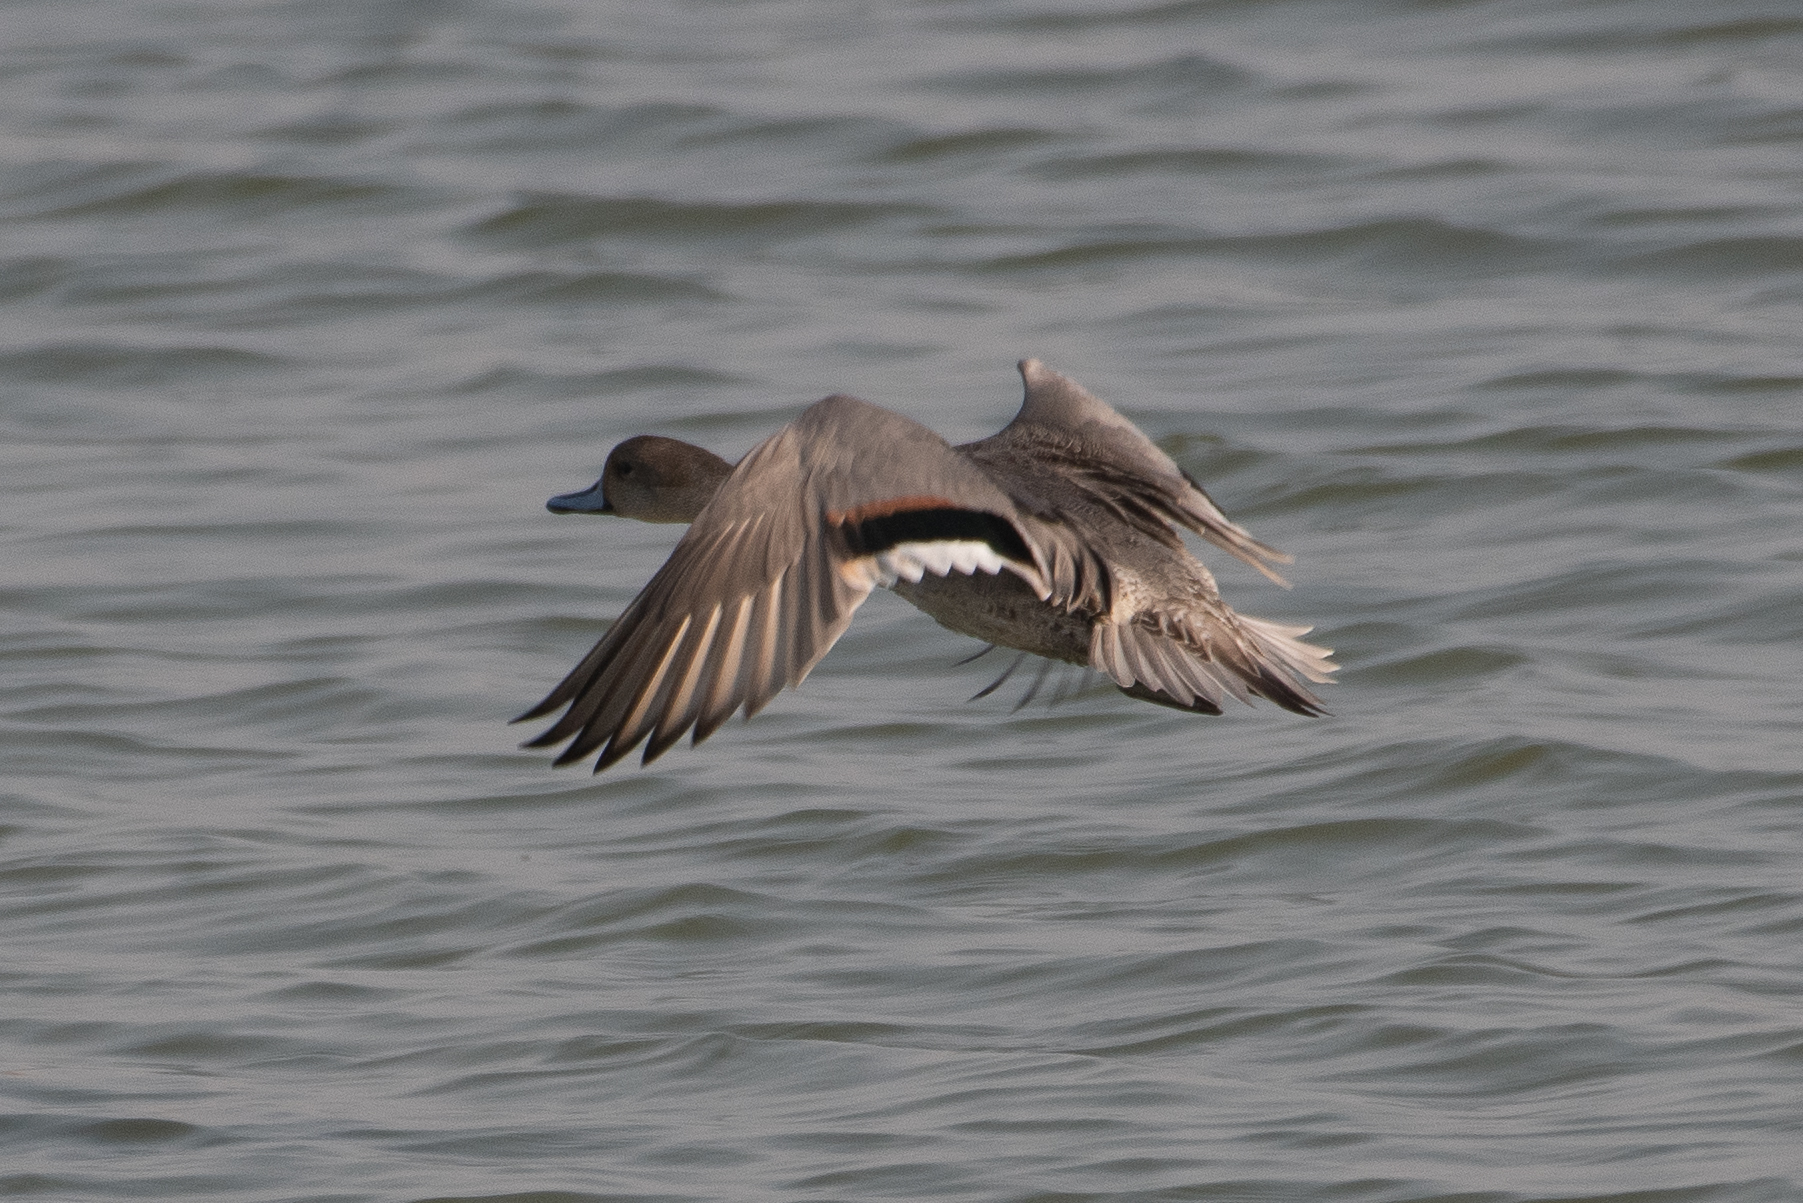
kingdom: Animalia
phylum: Chordata
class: Aves
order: Anseriformes
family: Anatidae
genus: Anas
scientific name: Anas acuta
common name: Northern pintail
